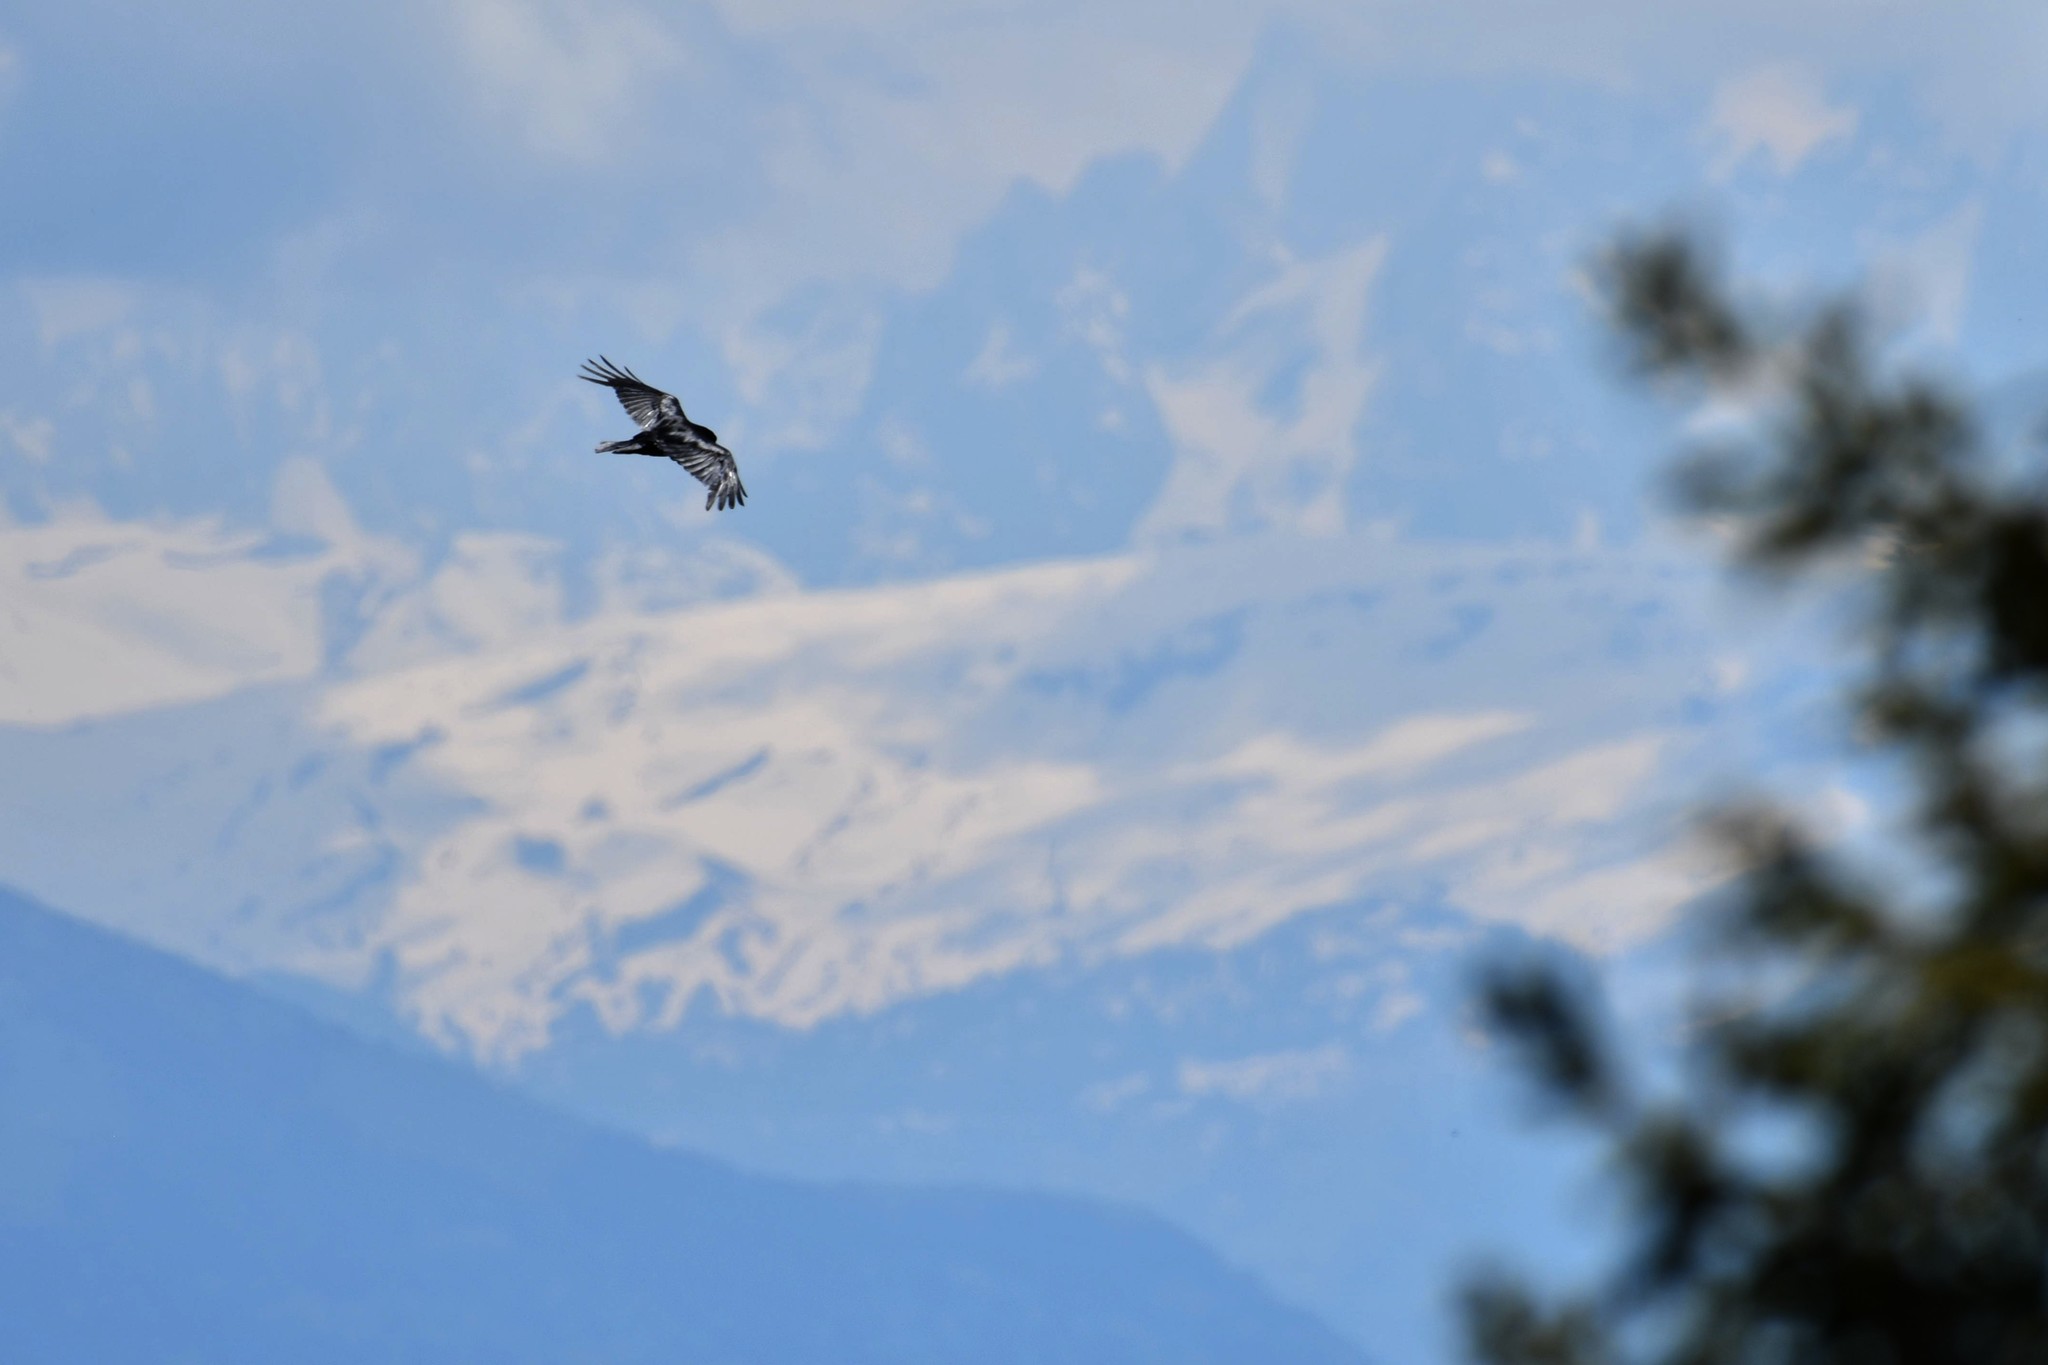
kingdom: Animalia
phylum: Chordata
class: Aves
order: Passeriformes
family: Corvidae
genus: Corvus
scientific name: Corvus corax
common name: Common raven
